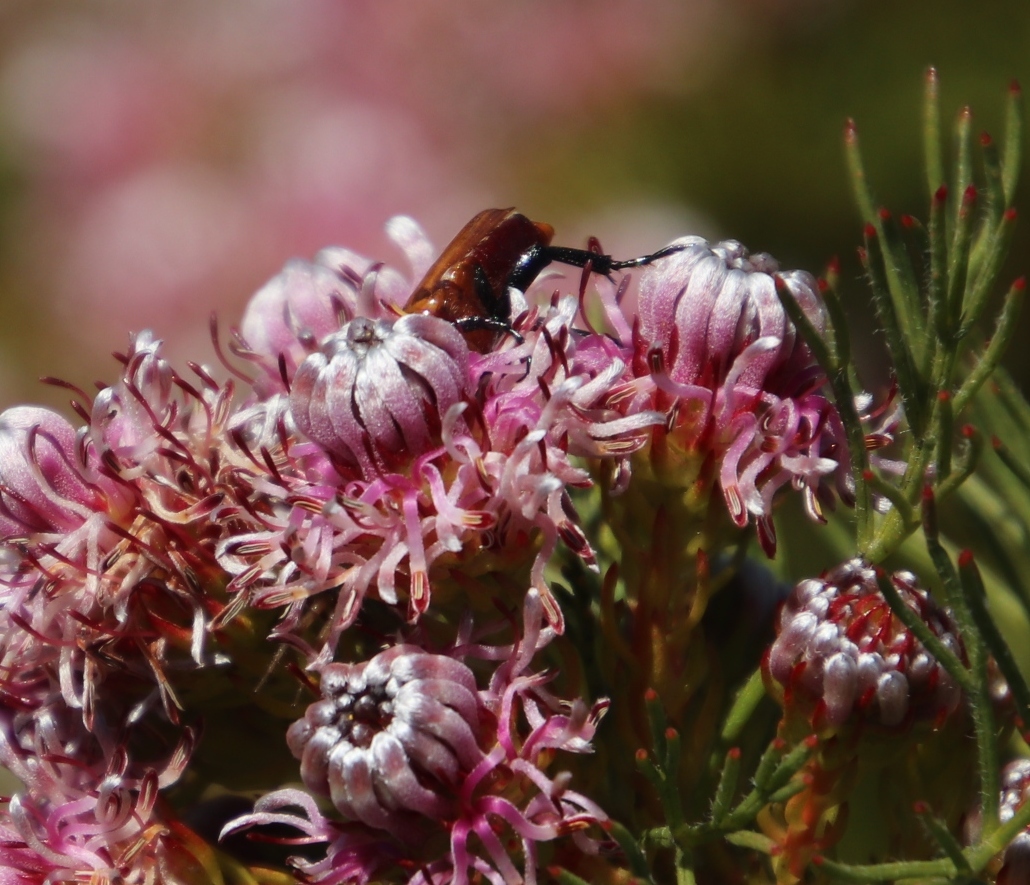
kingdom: Plantae
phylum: Tracheophyta
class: Magnoliopsida
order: Proteales
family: Proteaceae
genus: Serruria
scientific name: Serruria
